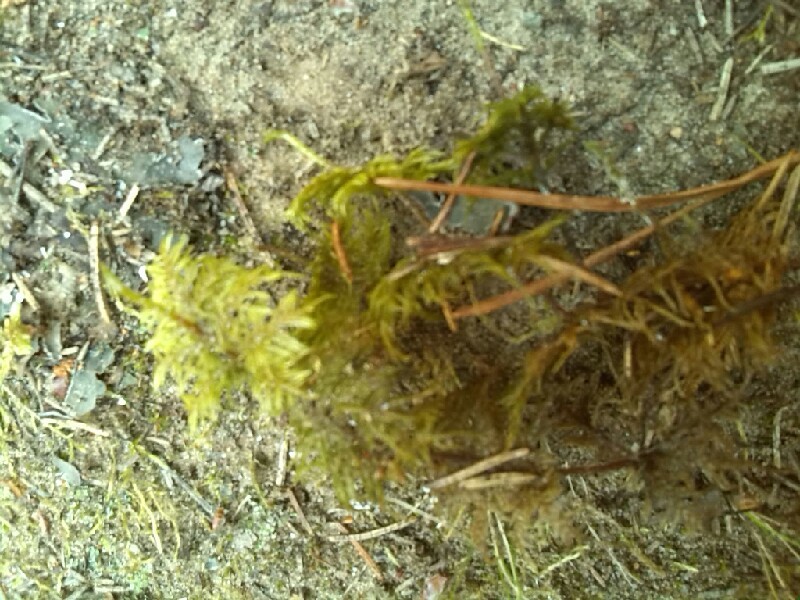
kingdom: Plantae
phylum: Bryophyta
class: Bryopsida
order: Hypnales
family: Hylocomiaceae
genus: Hylocomium
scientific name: Hylocomium splendens
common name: Stairstep moss
